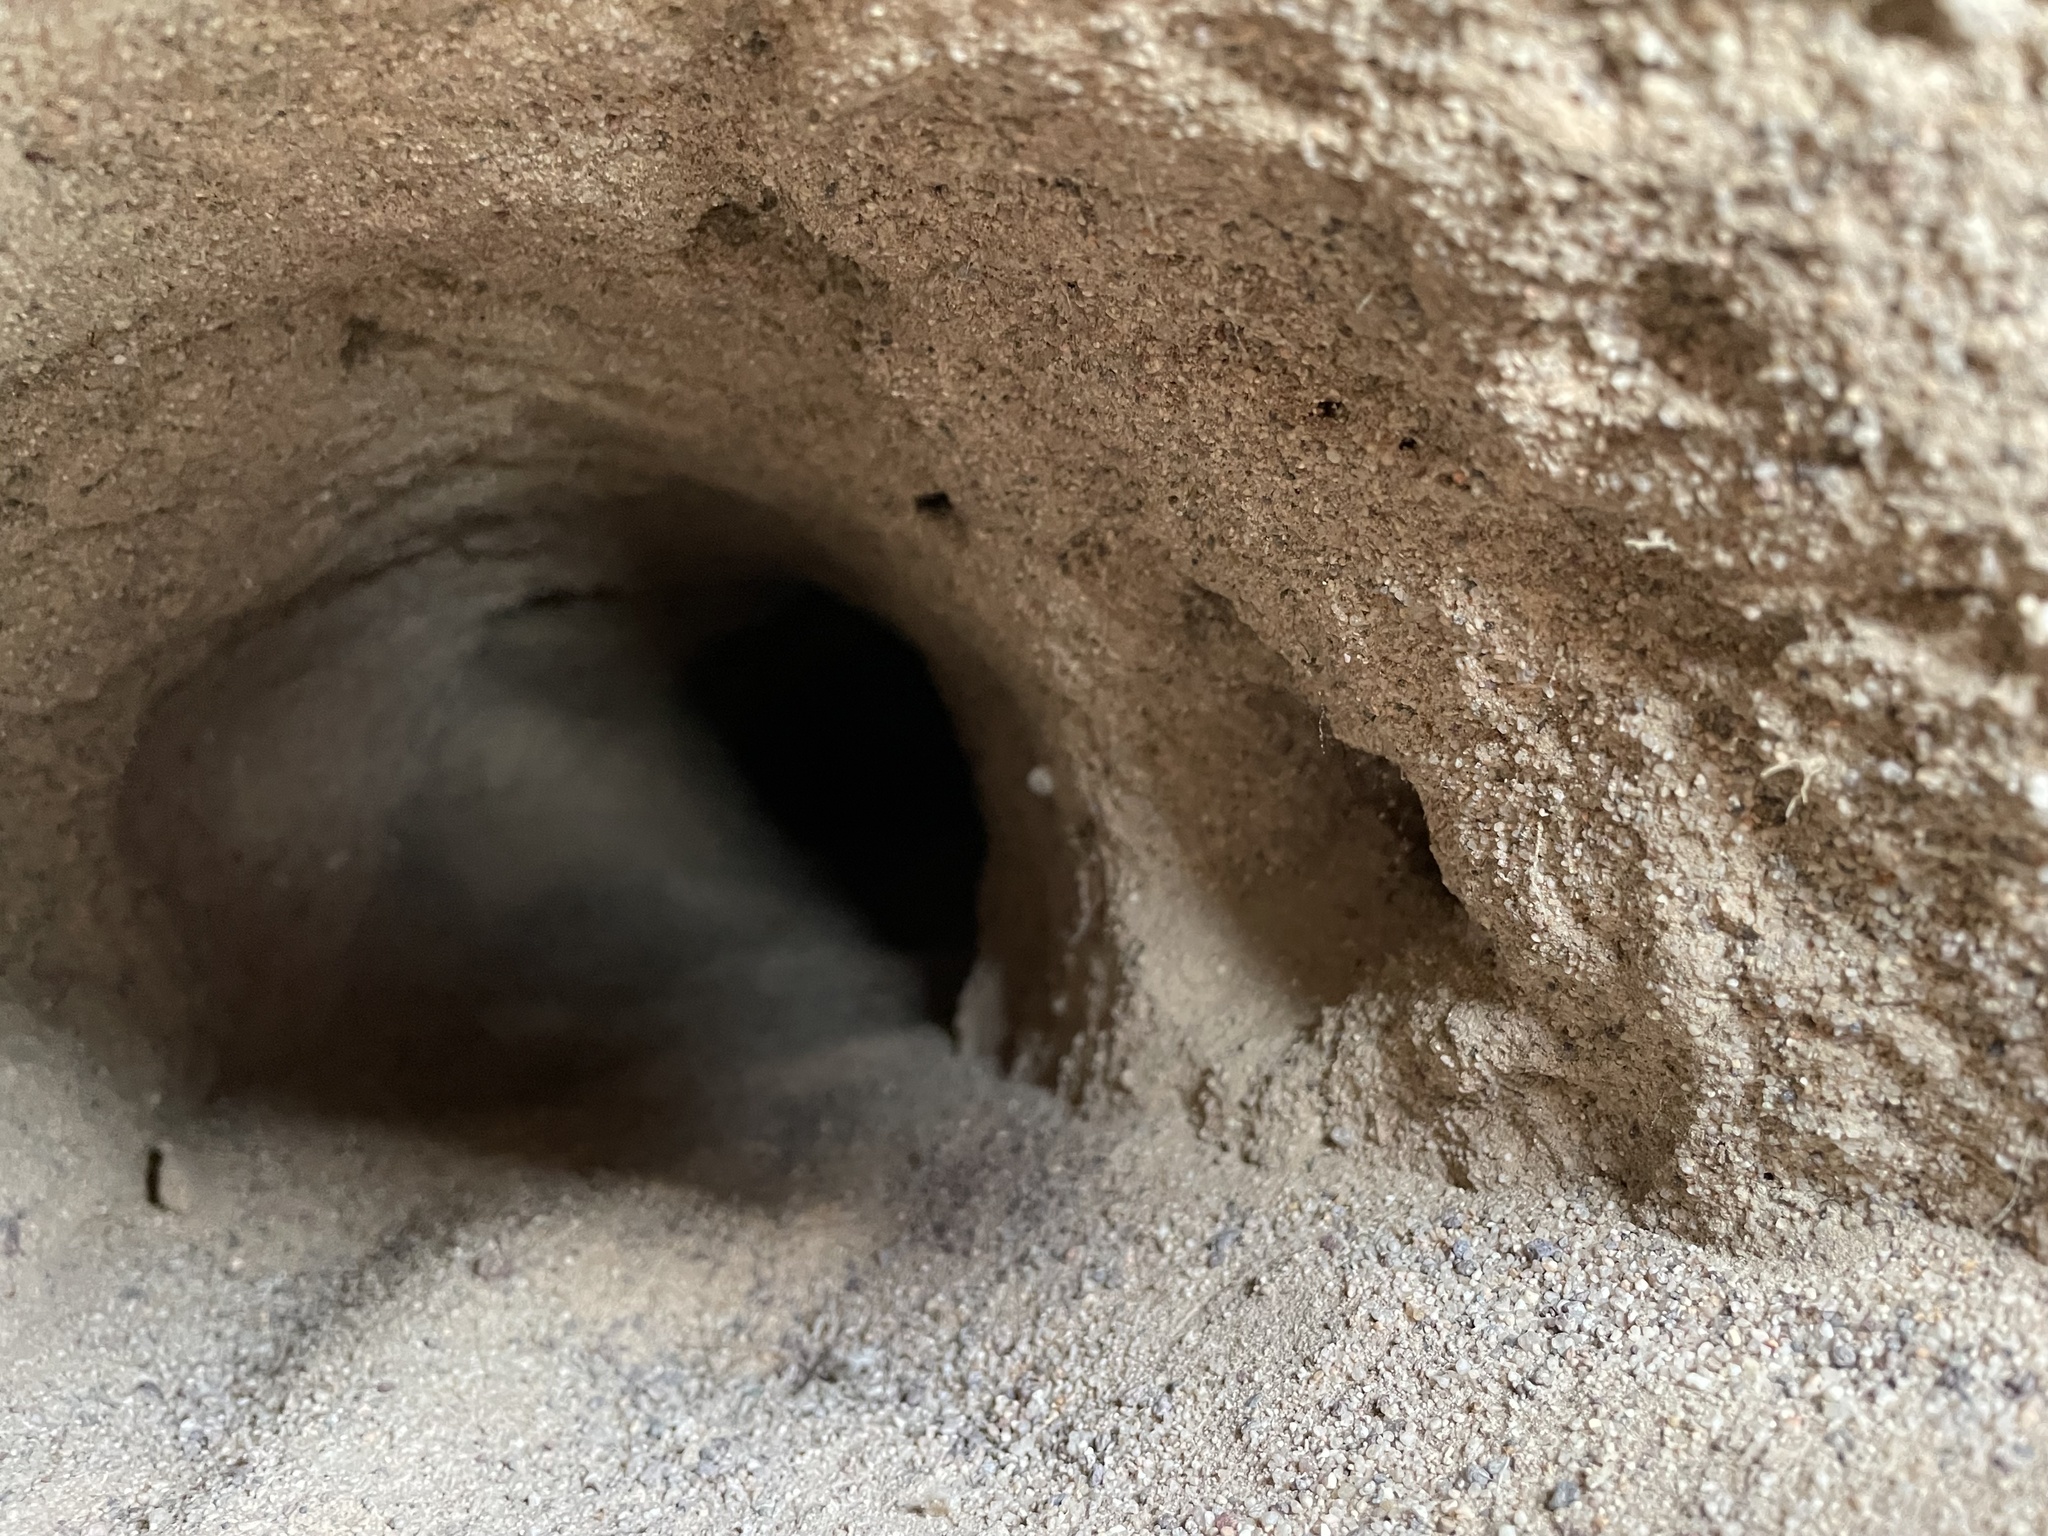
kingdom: Animalia
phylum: Chordata
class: Testudines
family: Testudinidae
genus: Gopherus
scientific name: Gopherus agassizii
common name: Mojave desert tortoise
